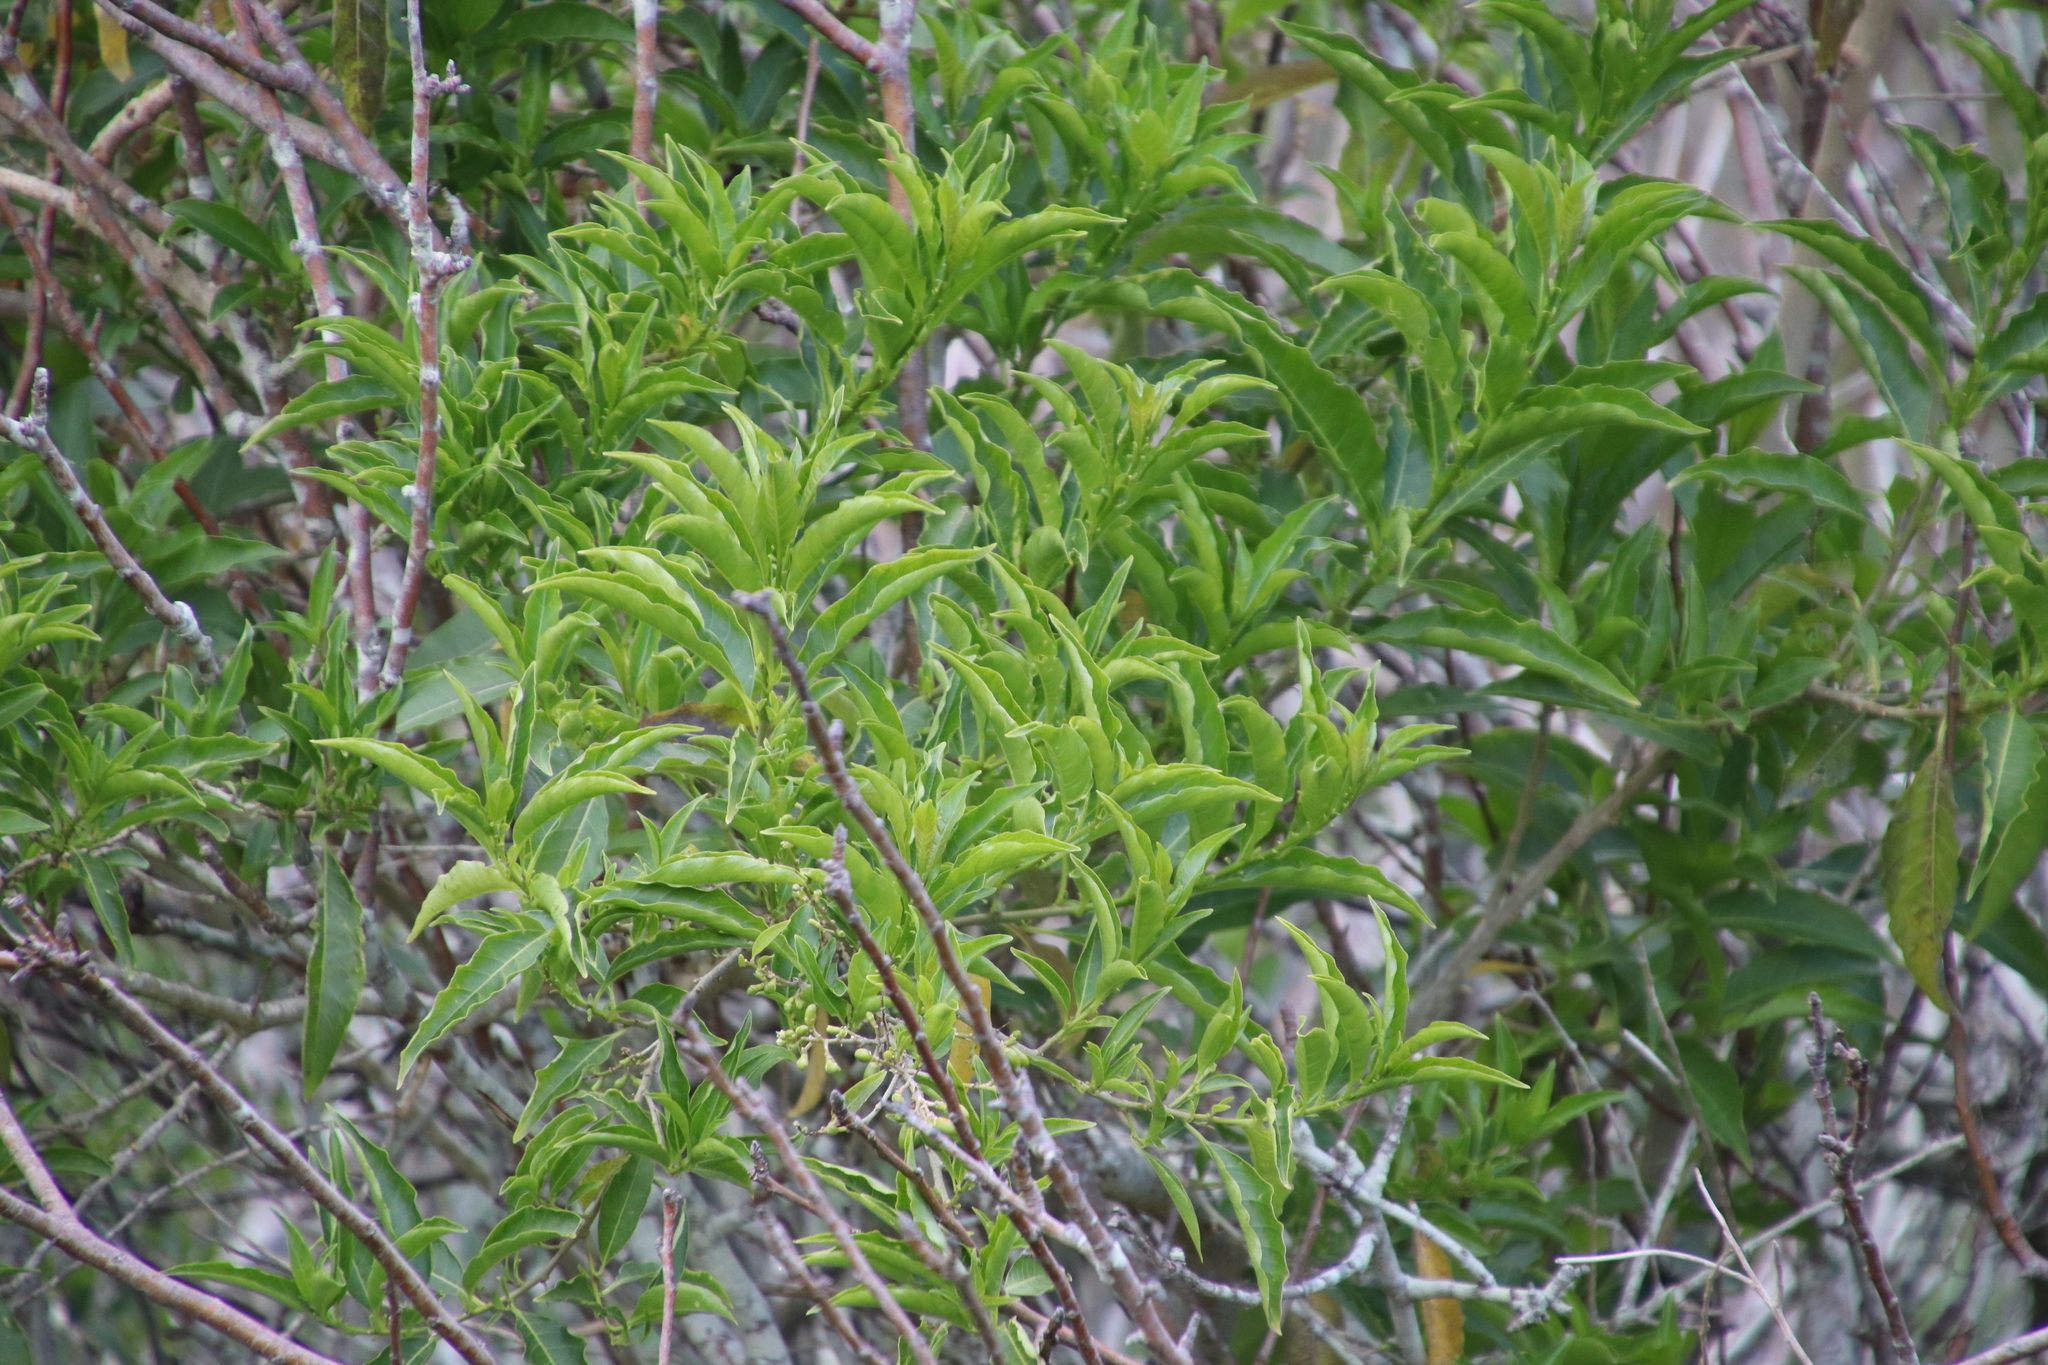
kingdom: Plantae
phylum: Tracheophyta
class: Magnoliopsida
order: Solanales
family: Solanaceae
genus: Cestrum
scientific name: Cestrum laevigatum
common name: Inkberry
